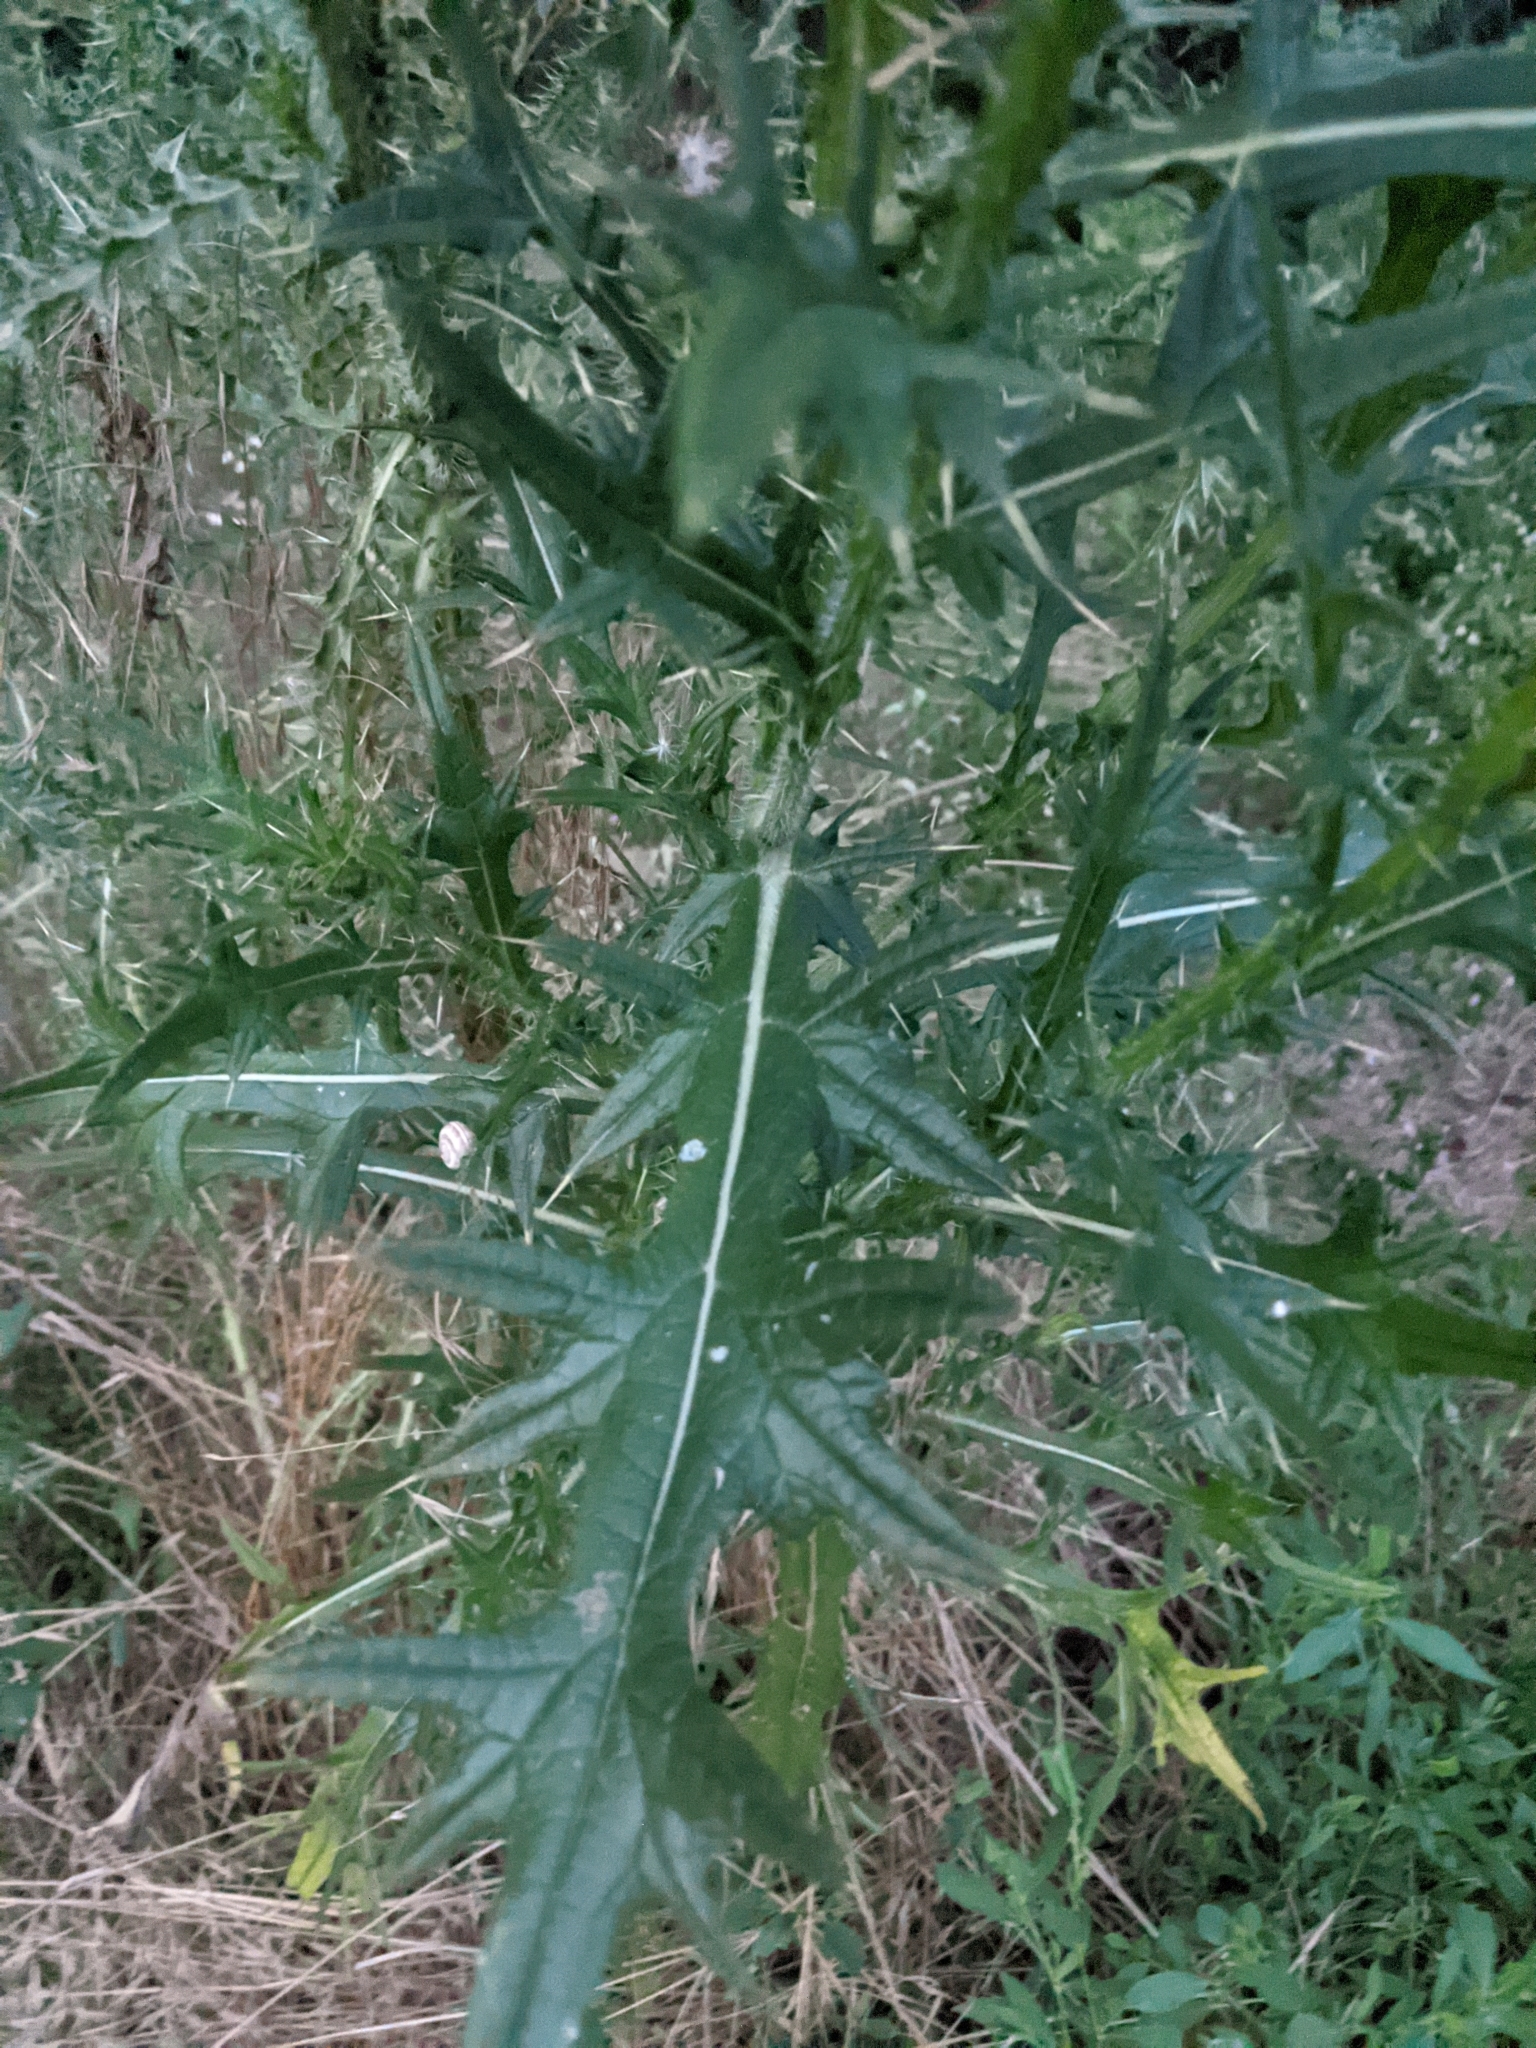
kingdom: Plantae
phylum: Tracheophyta
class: Magnoliopsida
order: Asterales
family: Asteraceae
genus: Carduus
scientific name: Carduus acanthoides
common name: Plumeless thistle
